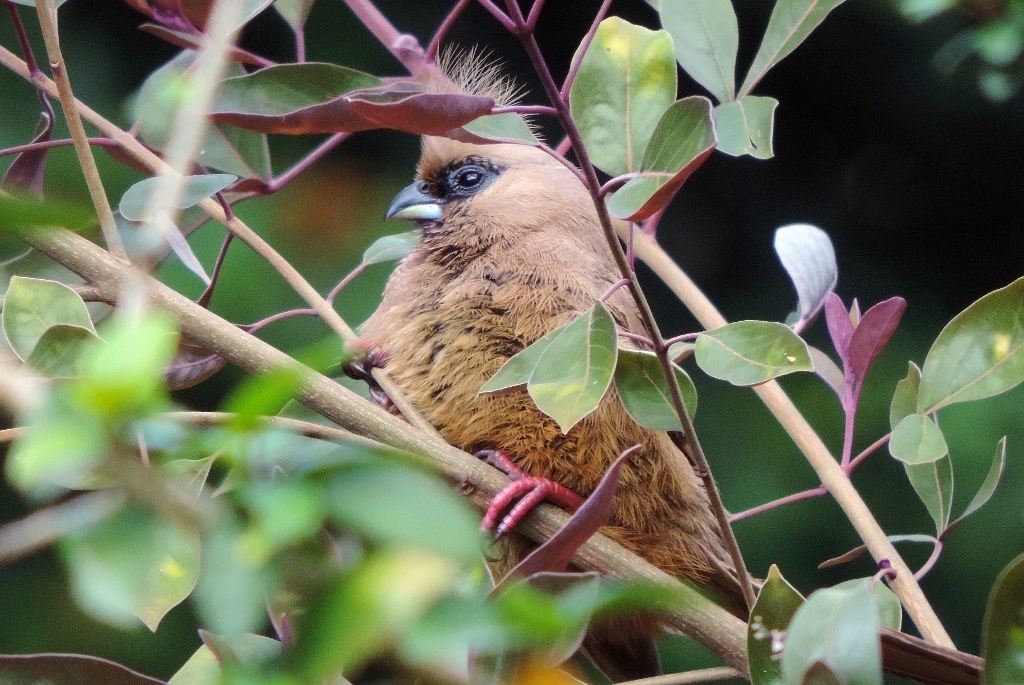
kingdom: Animalia
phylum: Chordata
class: Aves
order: Coliiformes
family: Coliidae
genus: Colius
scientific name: Colius striatus
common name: Speckled mousebird
